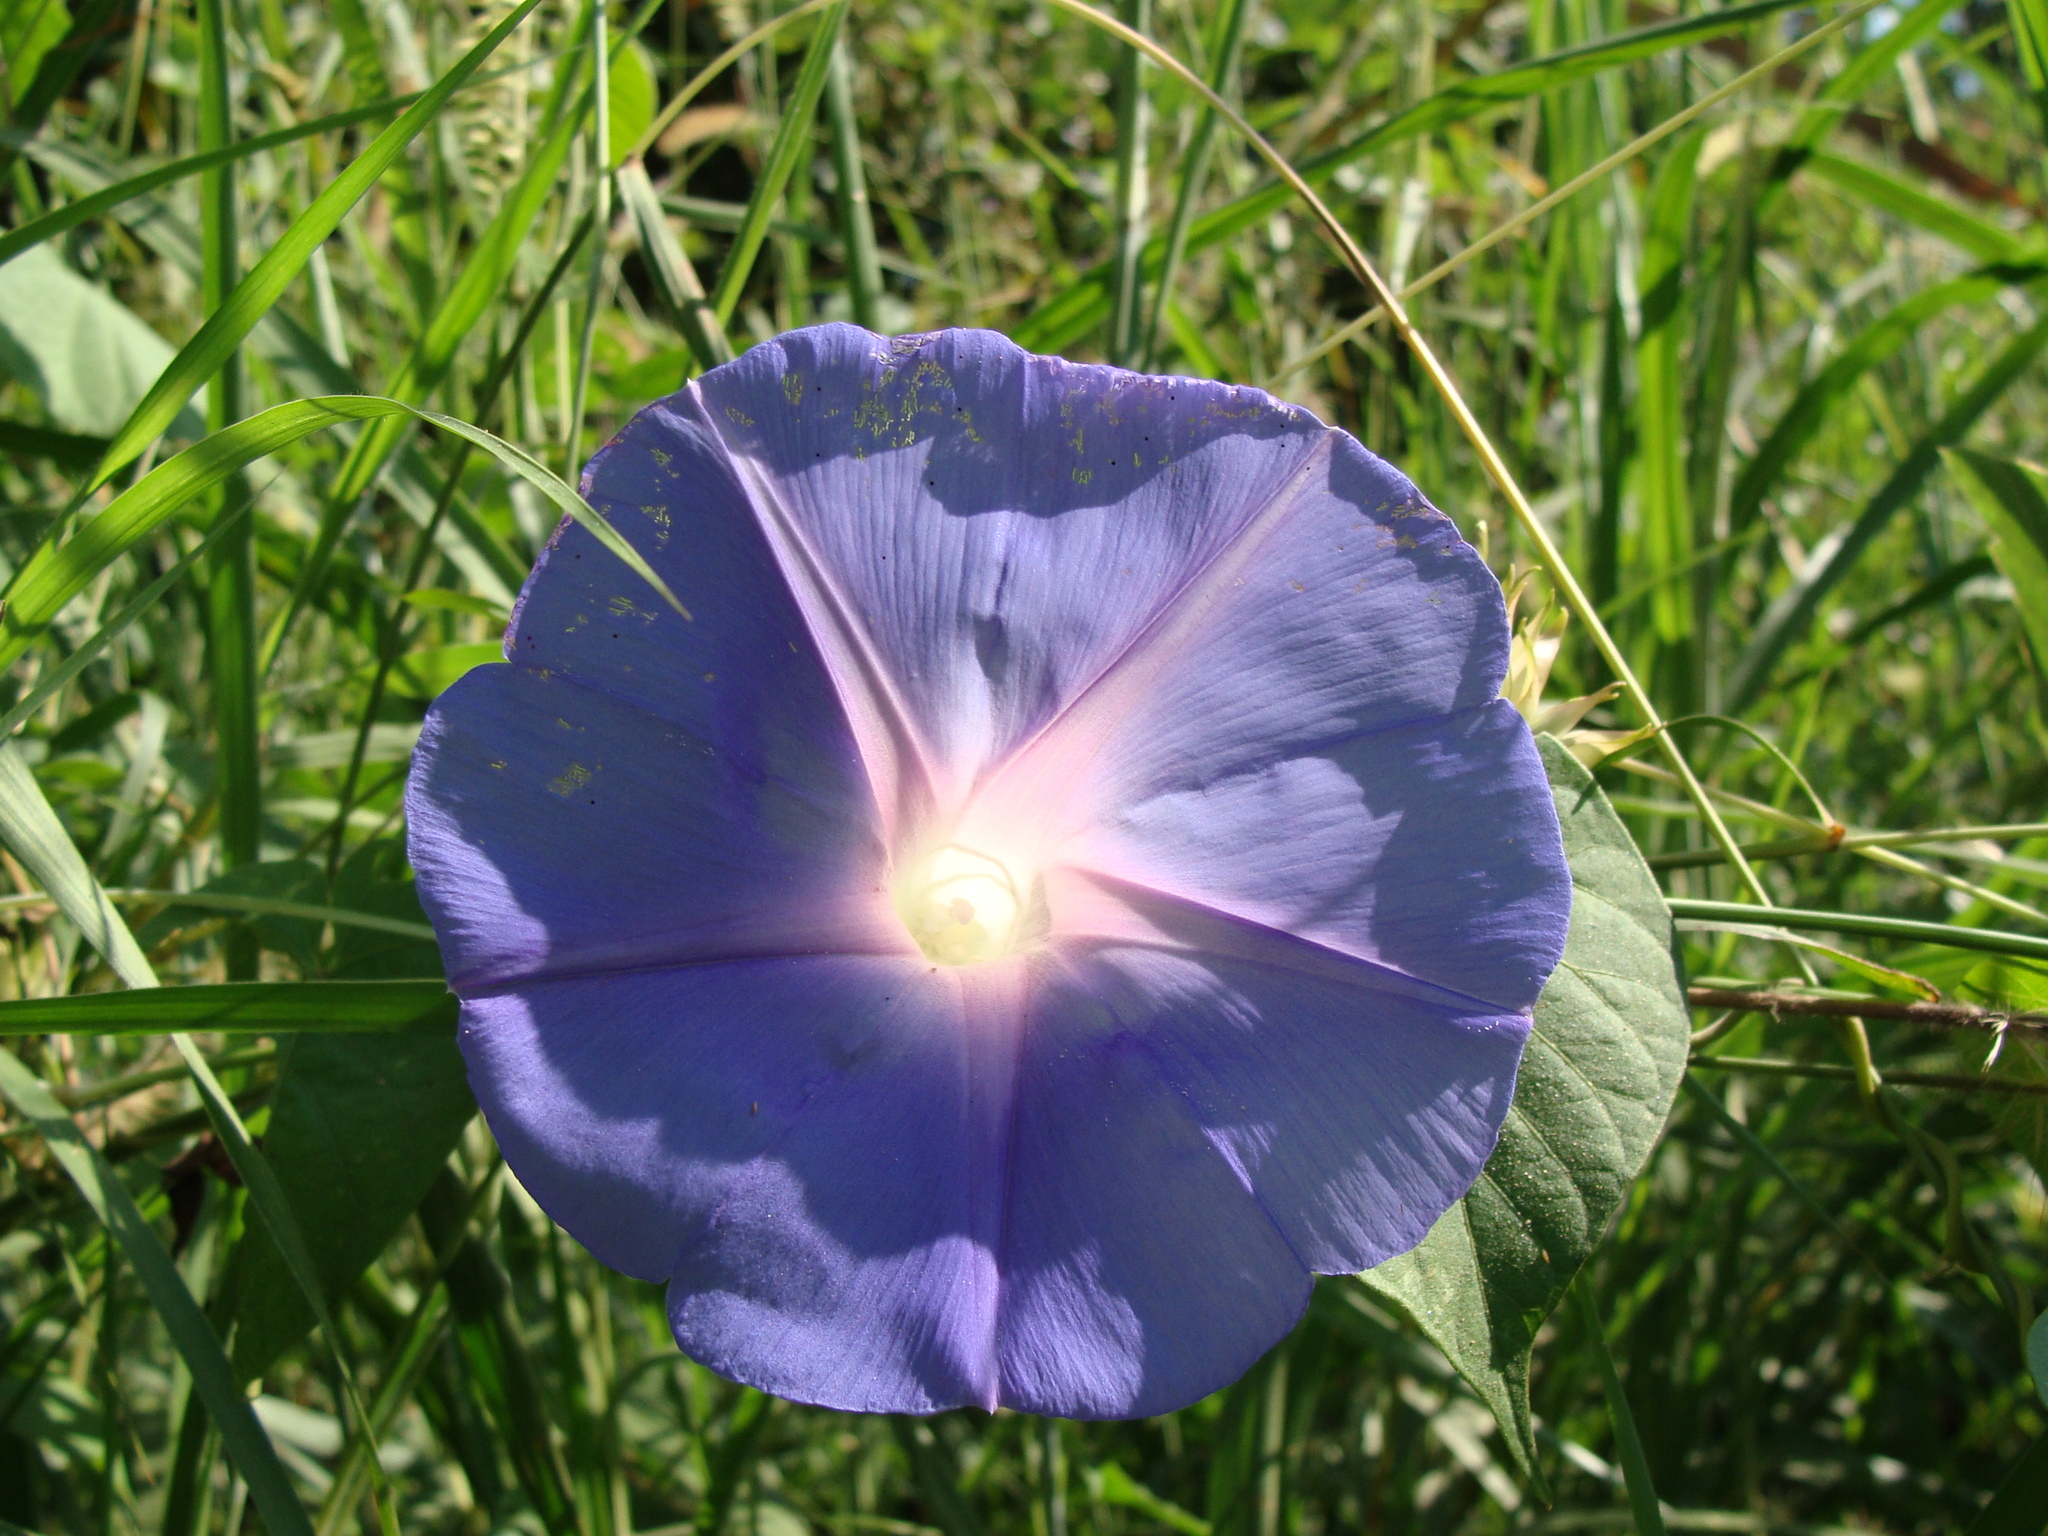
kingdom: Plantae
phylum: Tracheophyta
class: Magnoliopsida
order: Solanales
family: Convolvulaceae
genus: Ipomoea
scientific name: Ipomoea mitchelliae
